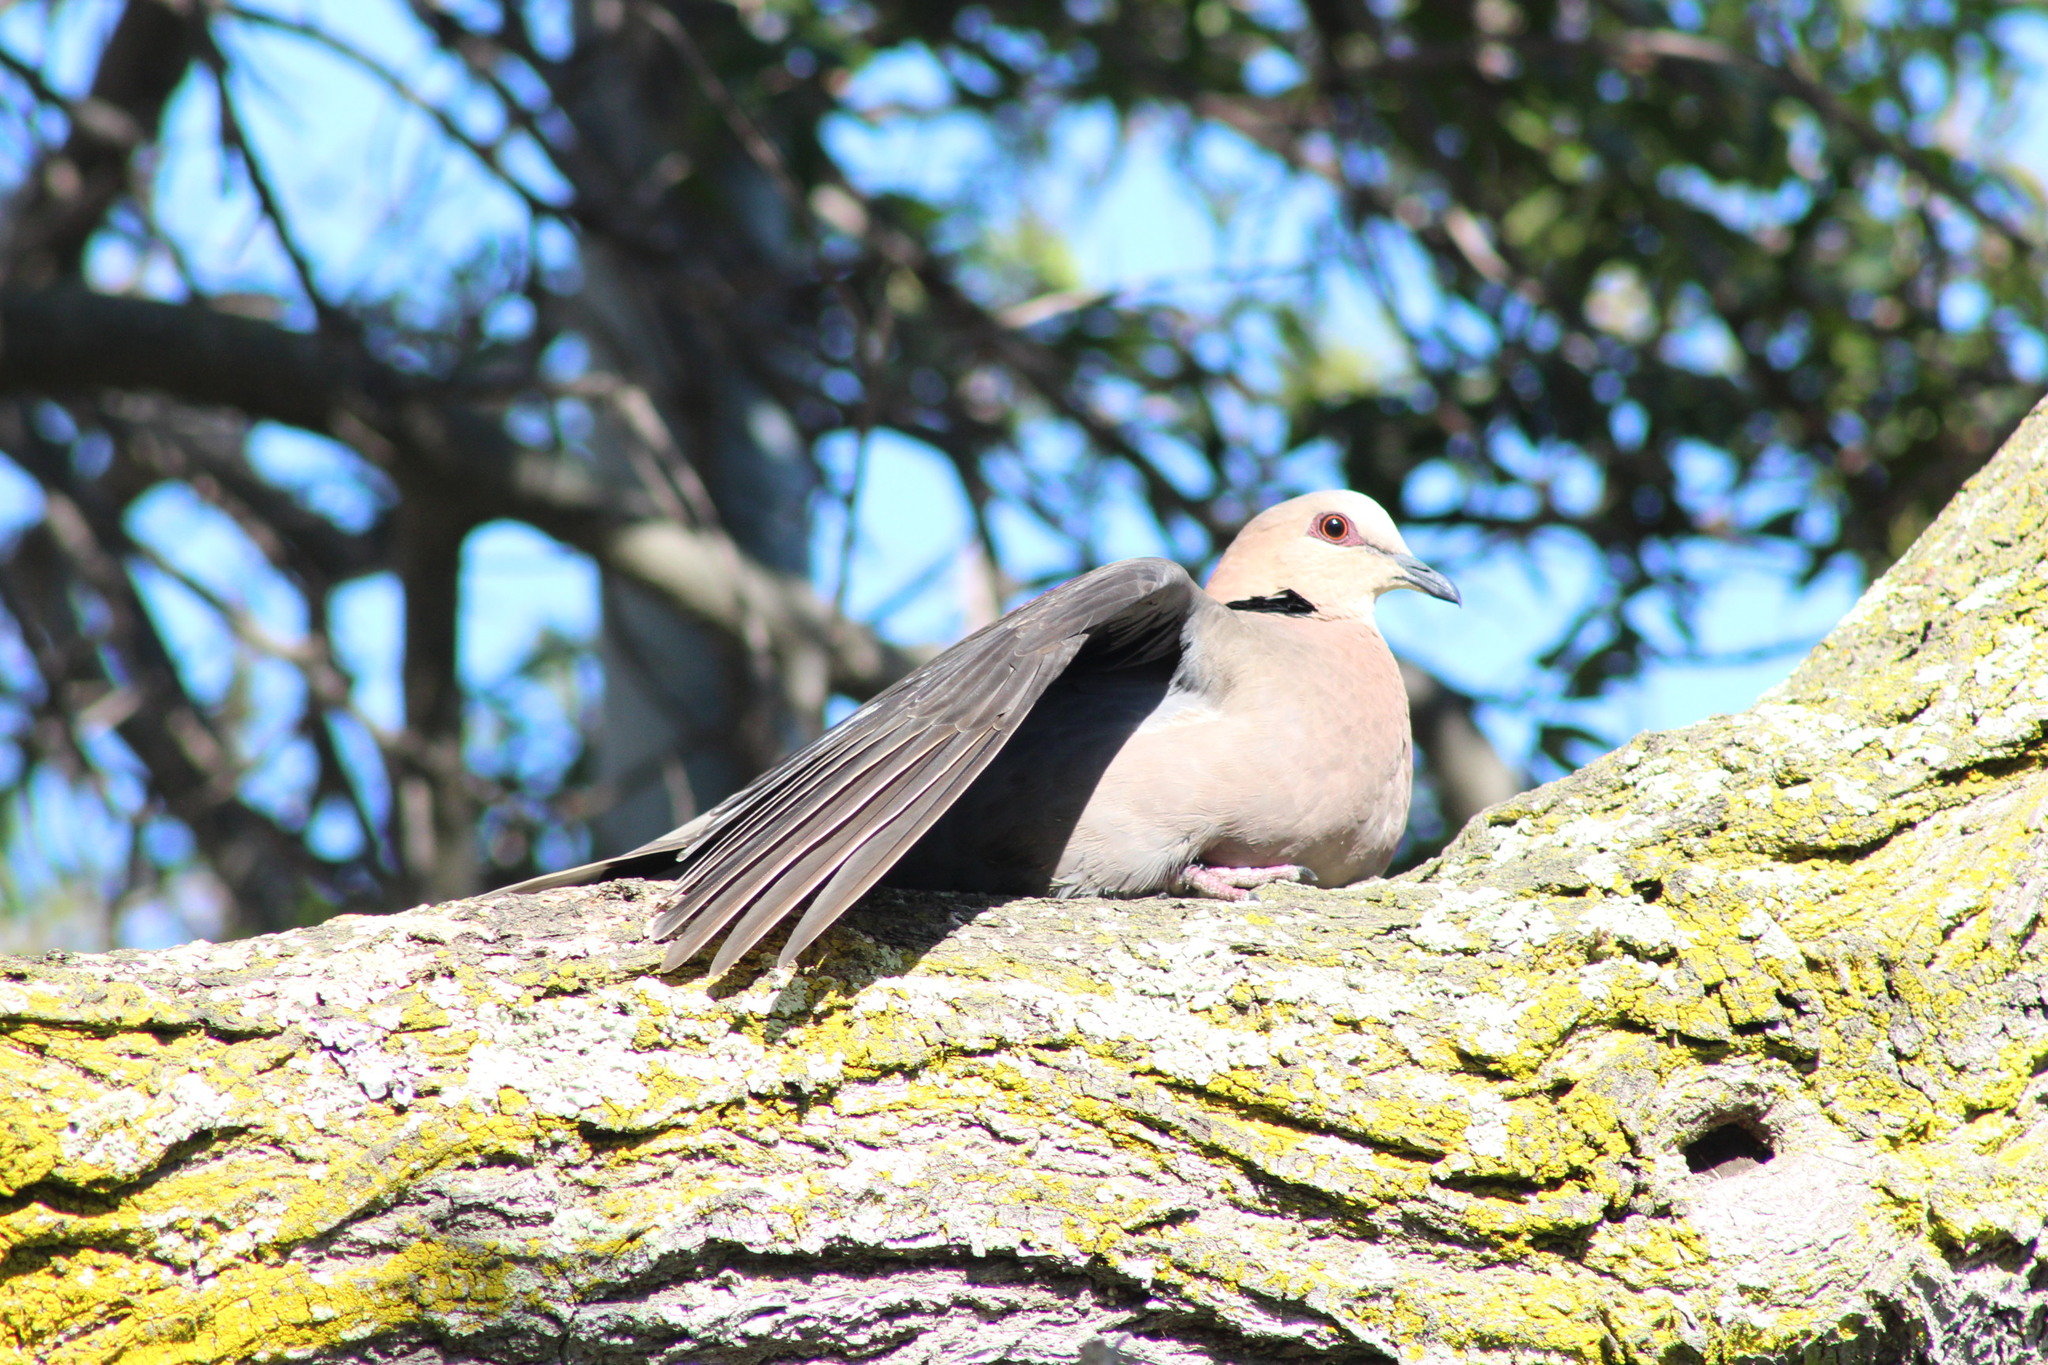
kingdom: Animalia
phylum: Chordata
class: Aves
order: Columbiformes
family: Columbidae
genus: Streptopelia
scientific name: Streptopelia semitorquata
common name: Red-eyed dove
